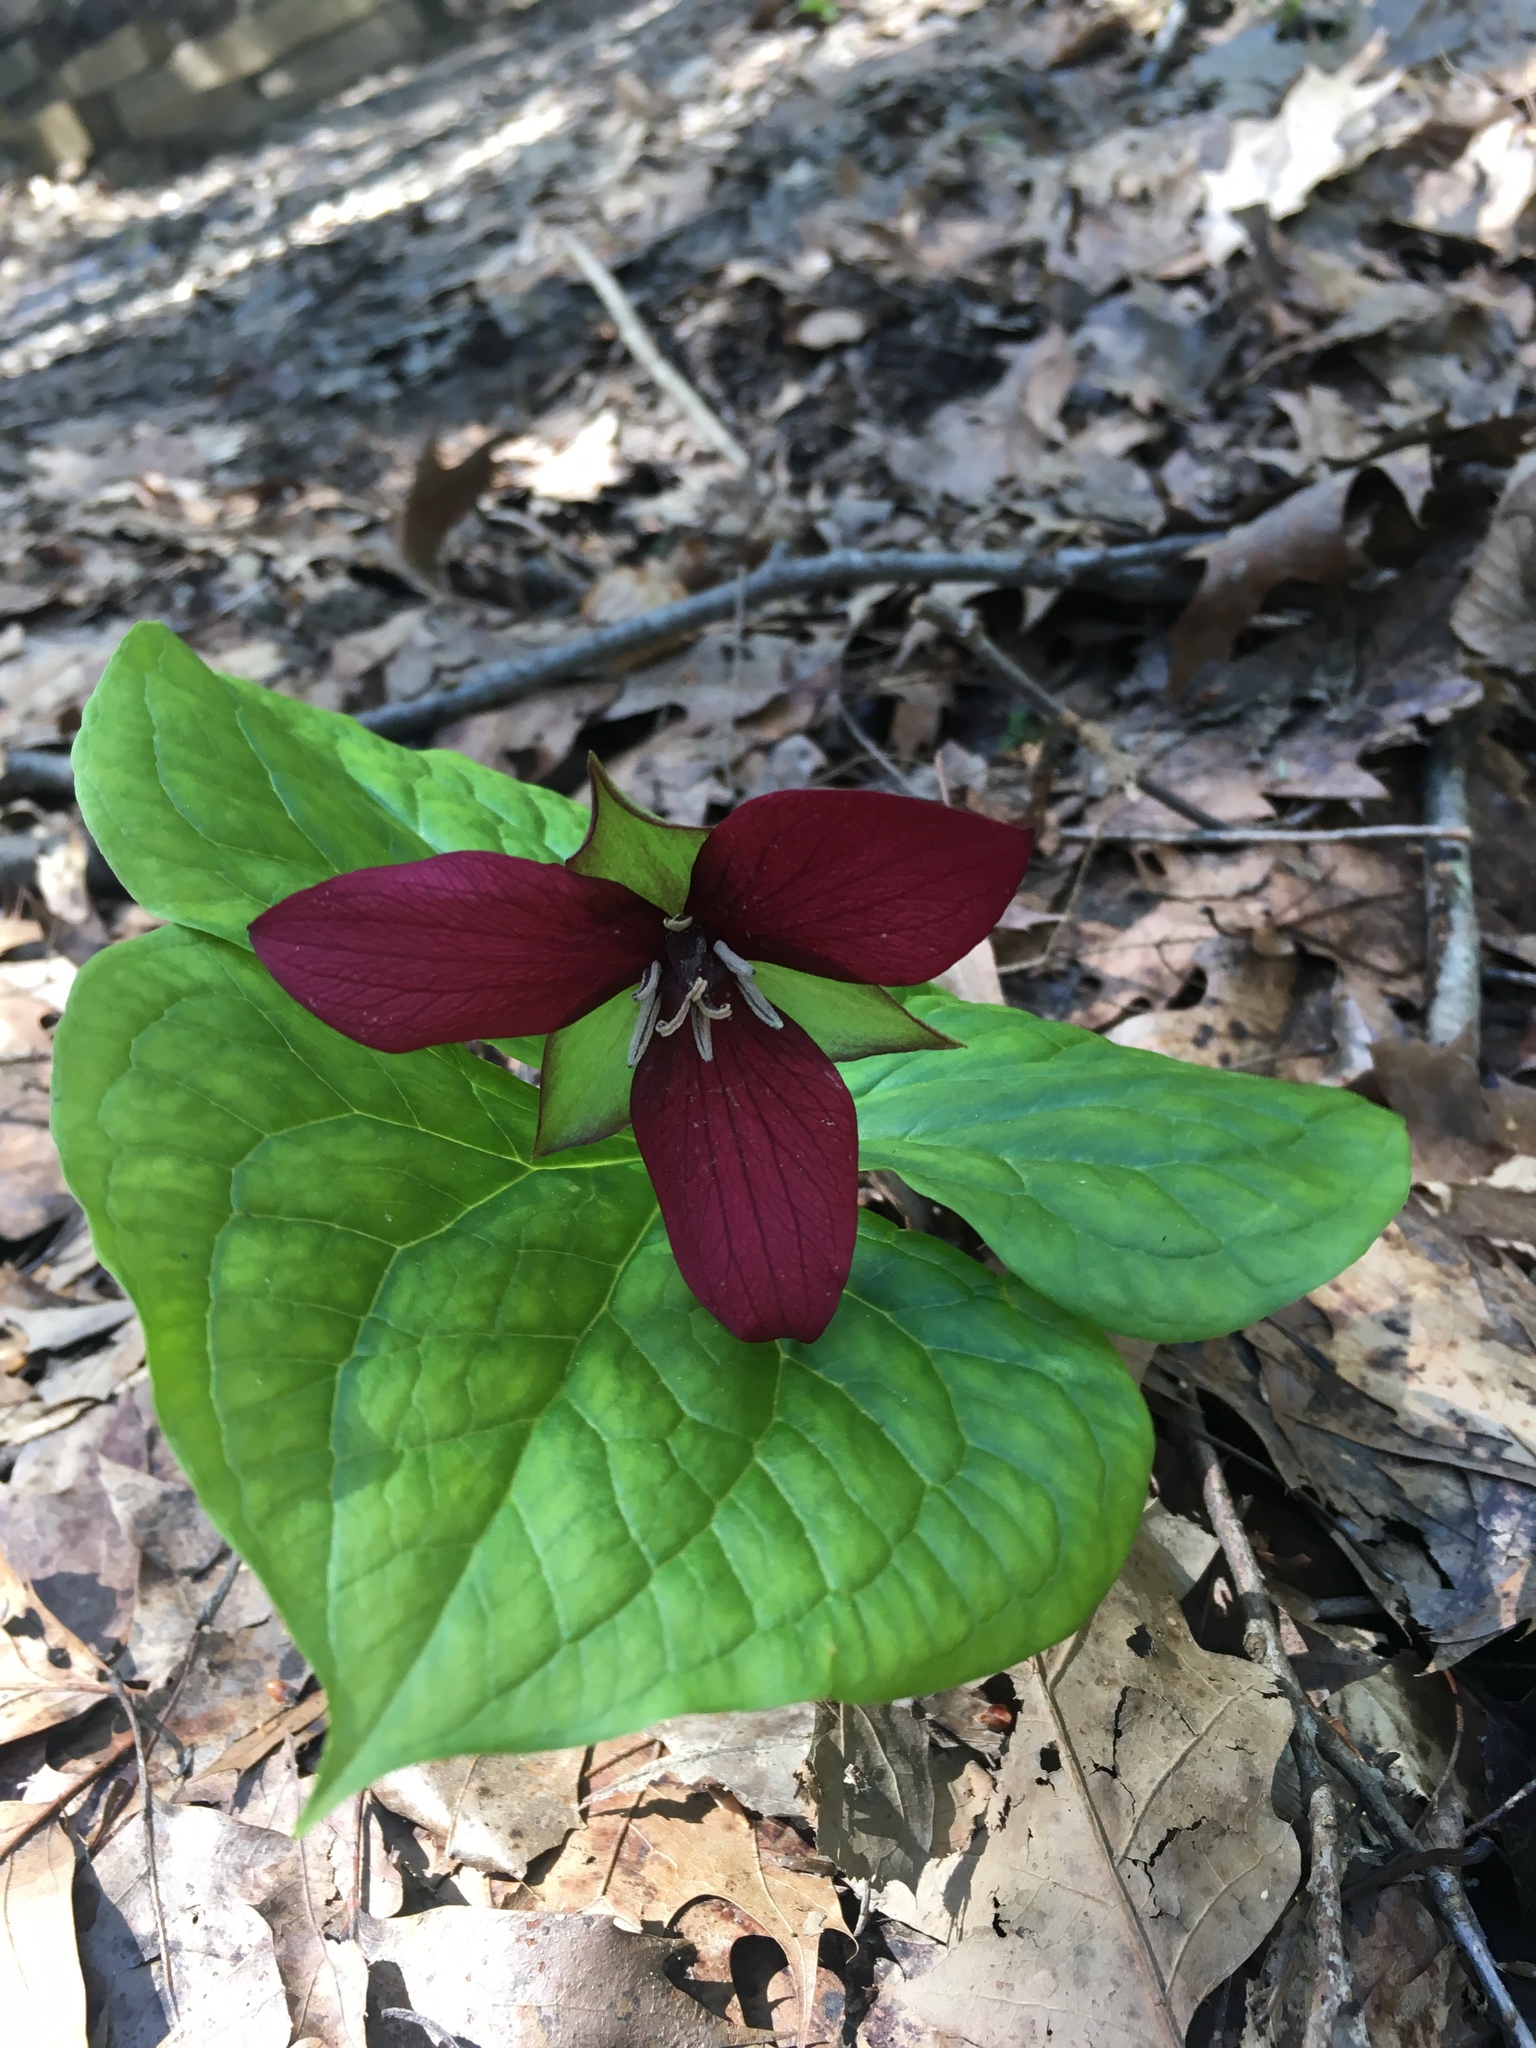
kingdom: Plantae
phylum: Tracheophyta
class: Liliopsida
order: Liliales
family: Melanthiaceae
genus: Trillium
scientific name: Trillium erectum
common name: Purple trillium
